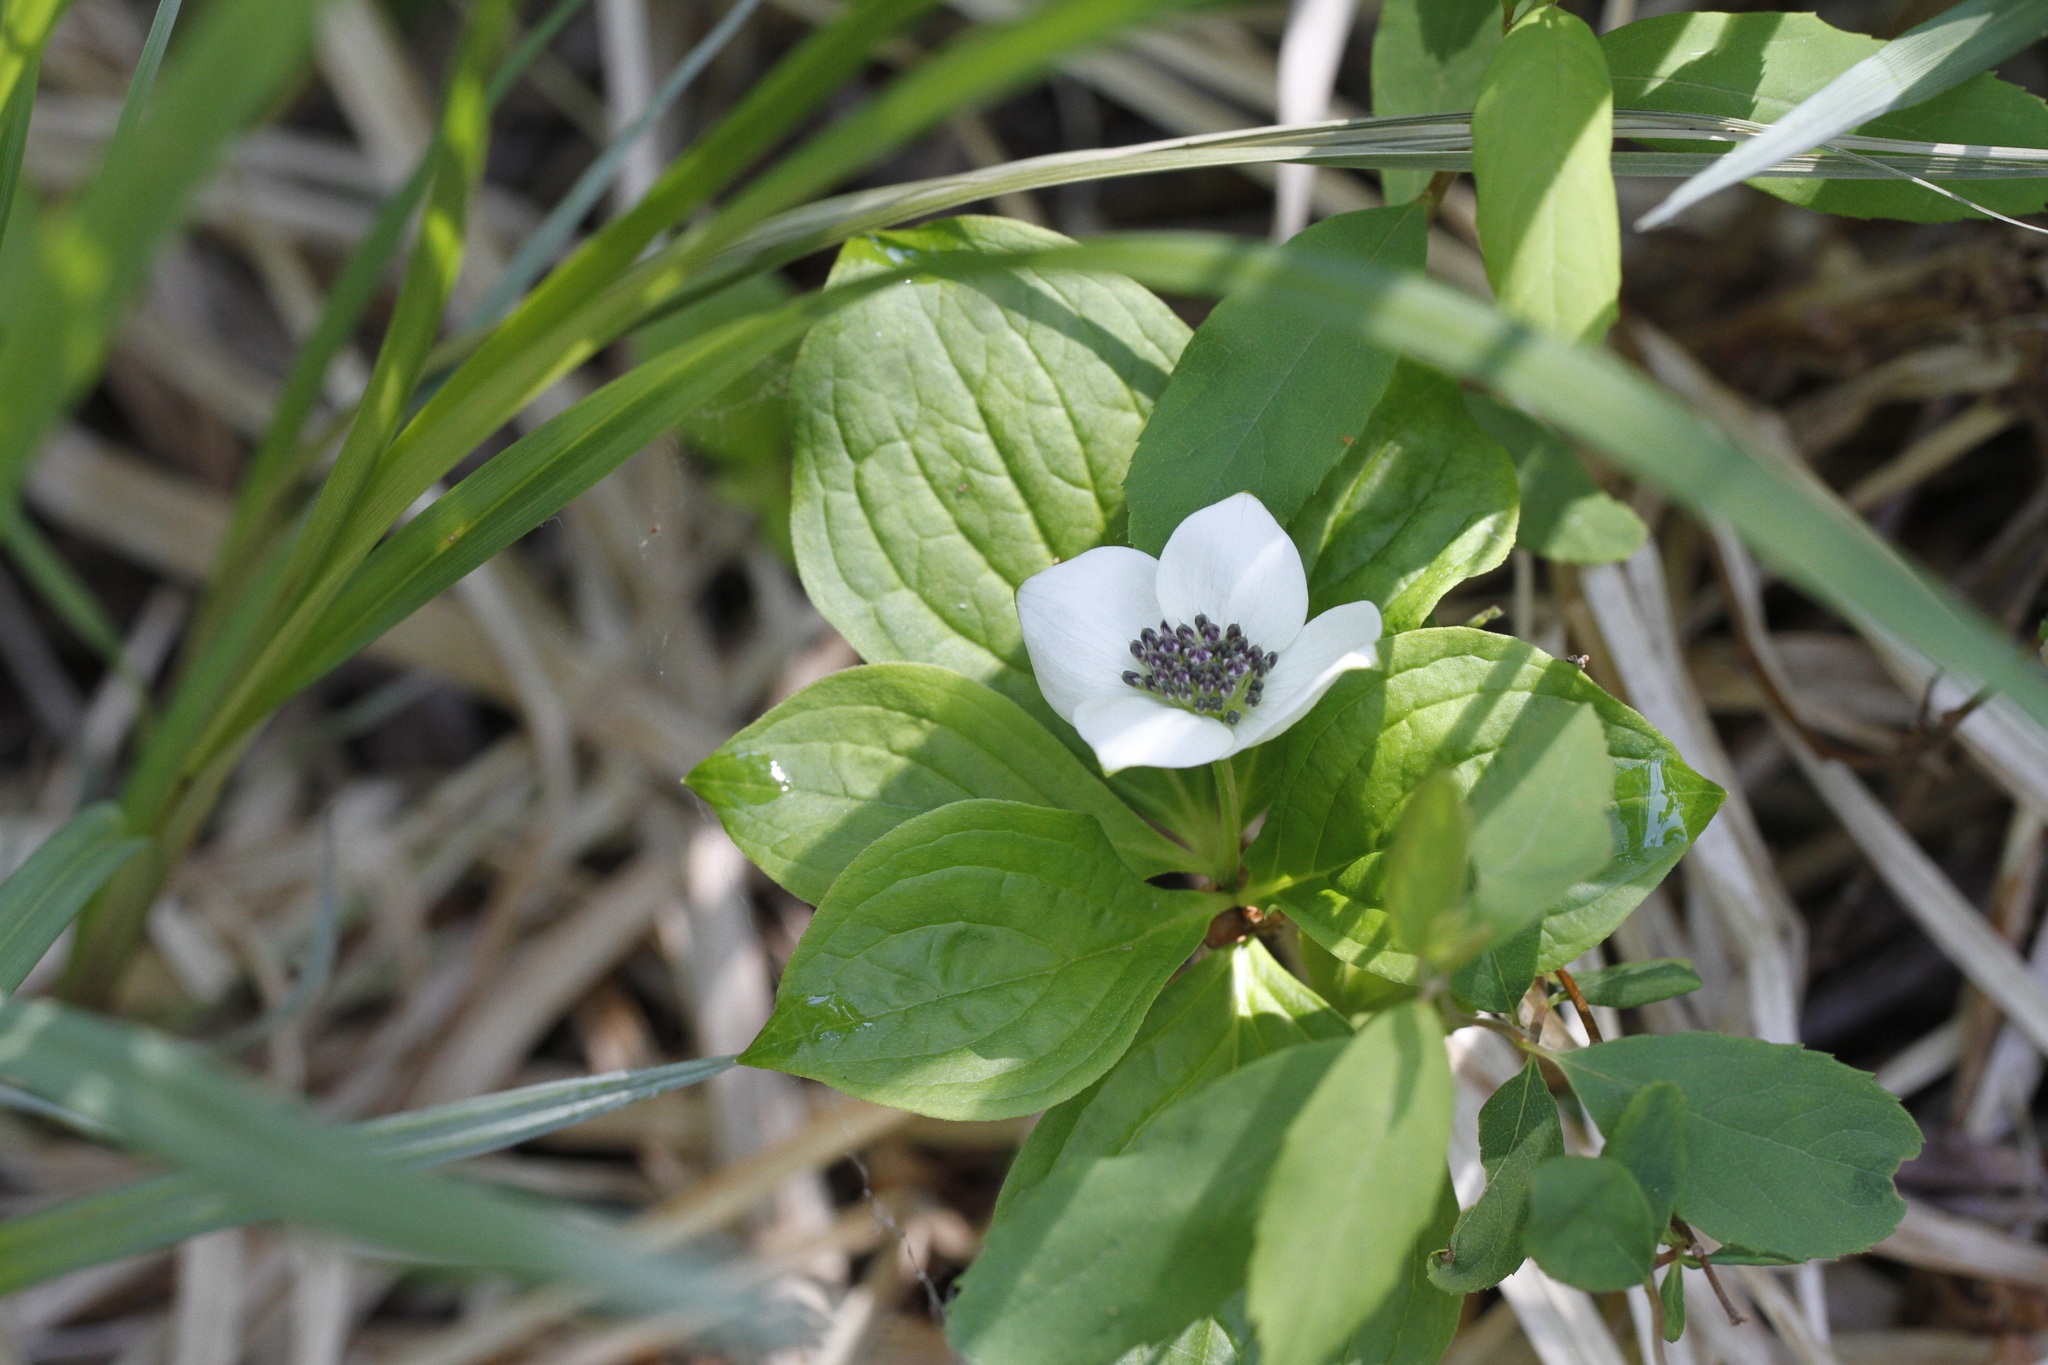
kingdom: Plantae
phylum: Tracheophyta
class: Magnoliopsida
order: Cornales
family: Cornaceae
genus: Cornus
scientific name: Cornus unalaschkensis
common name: Alaska bunchberry
